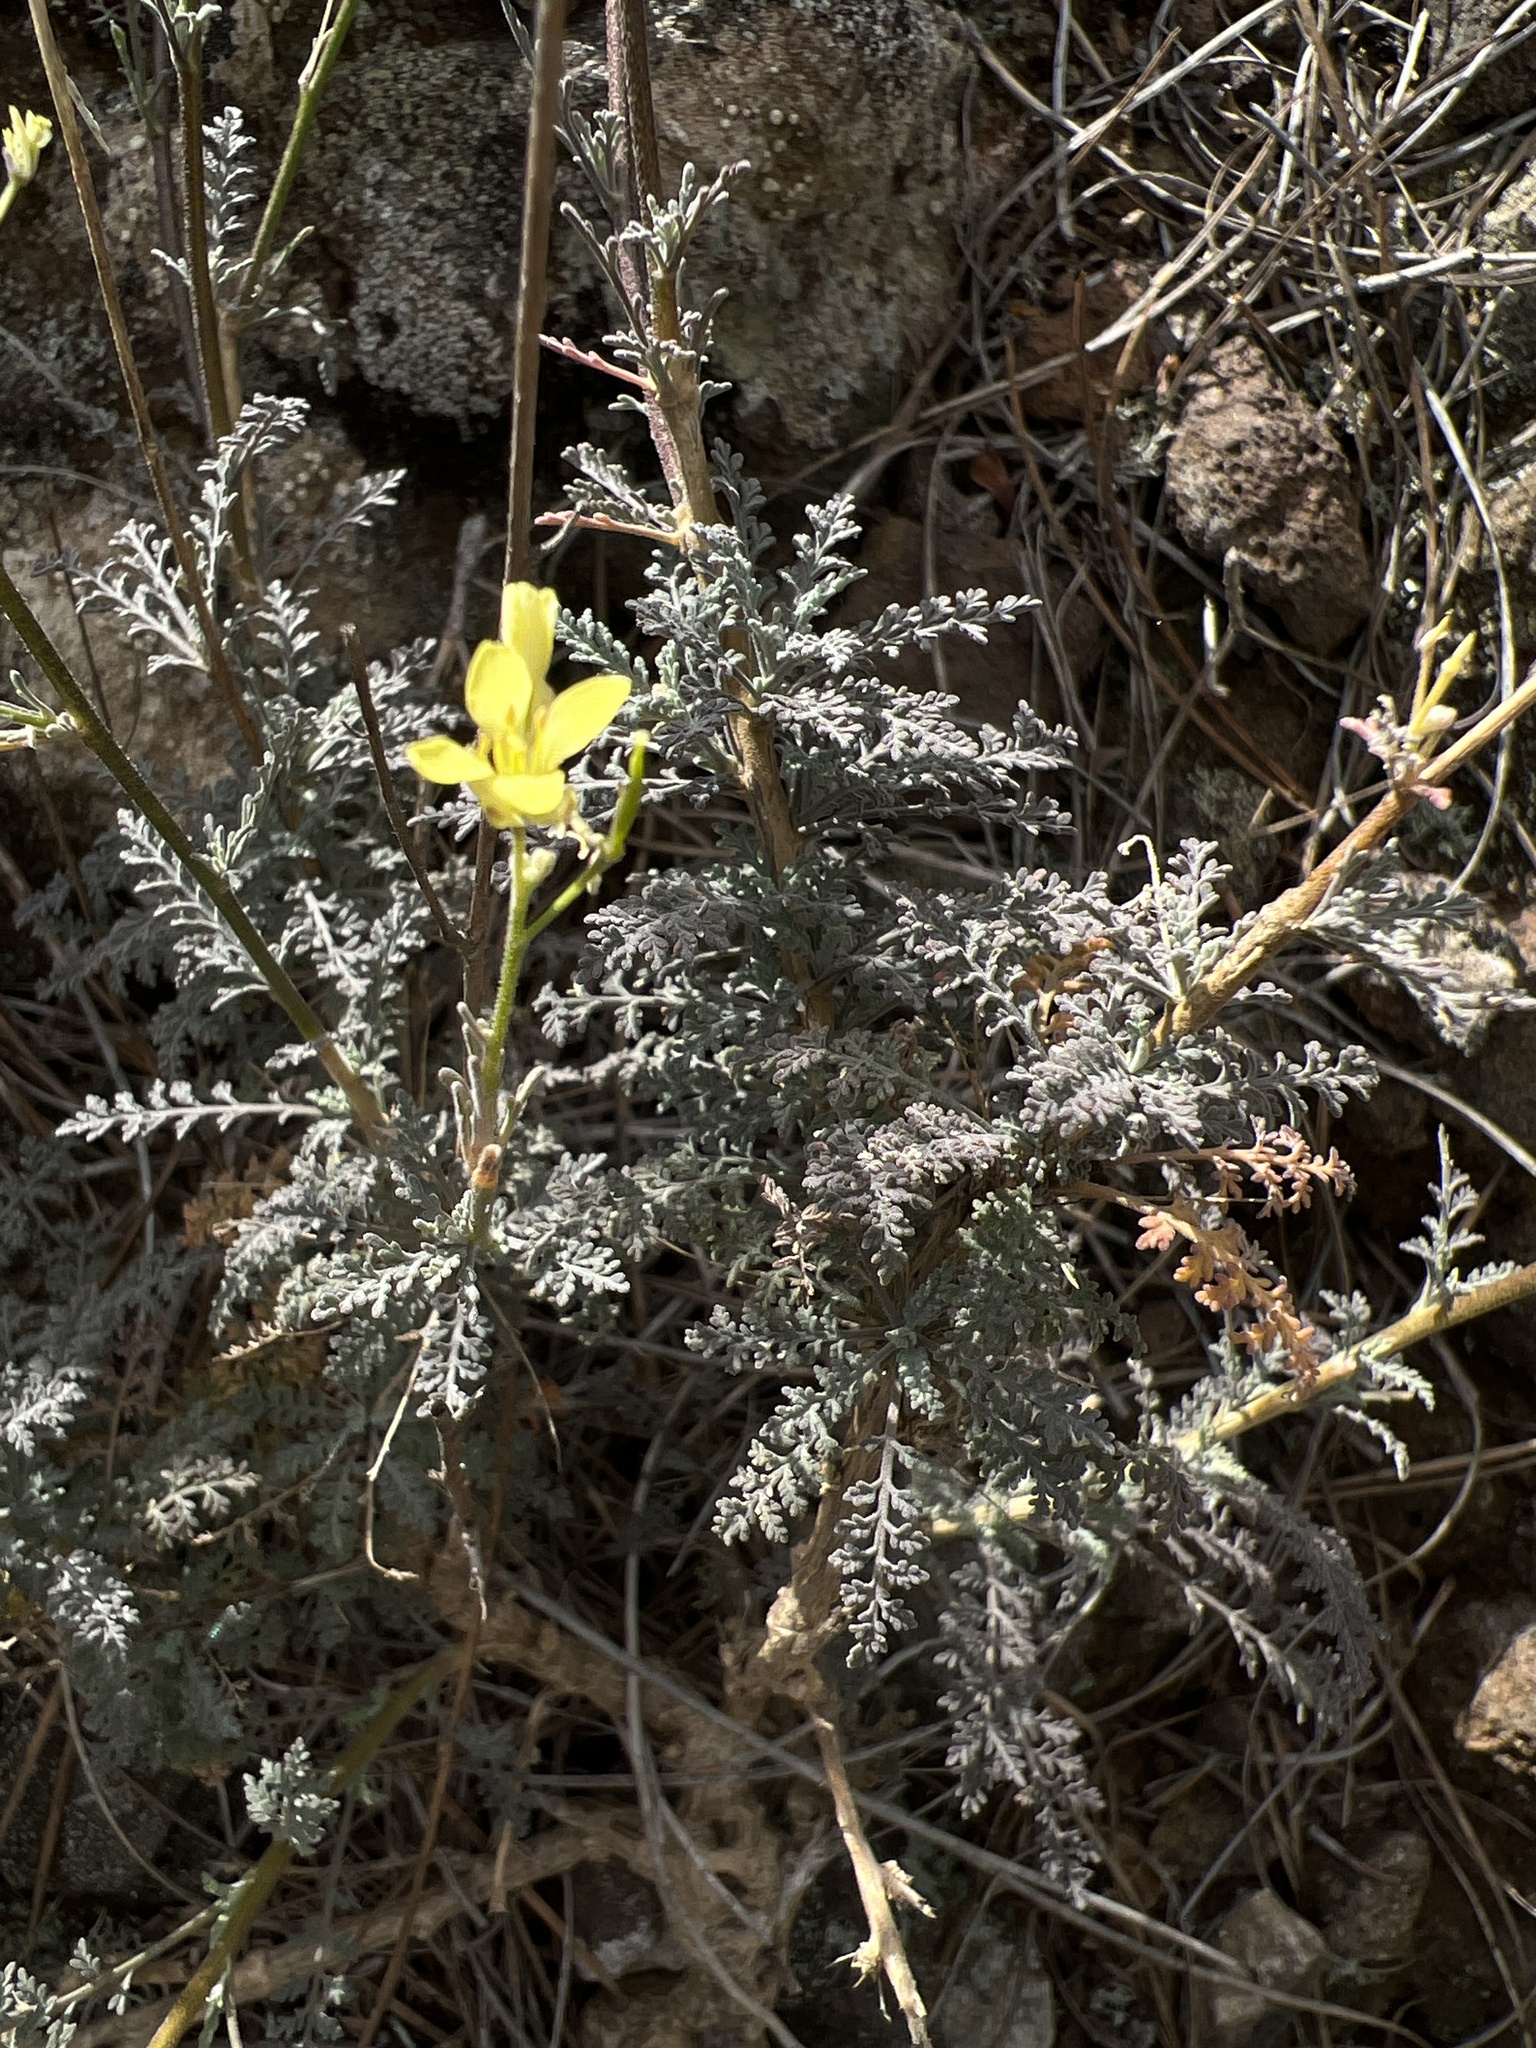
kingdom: Plantae
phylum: Tracheophyta
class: Magnoliopsida
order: Brassicales
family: Brassicaceae
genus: Descurainia
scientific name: Descurainia millefolia
